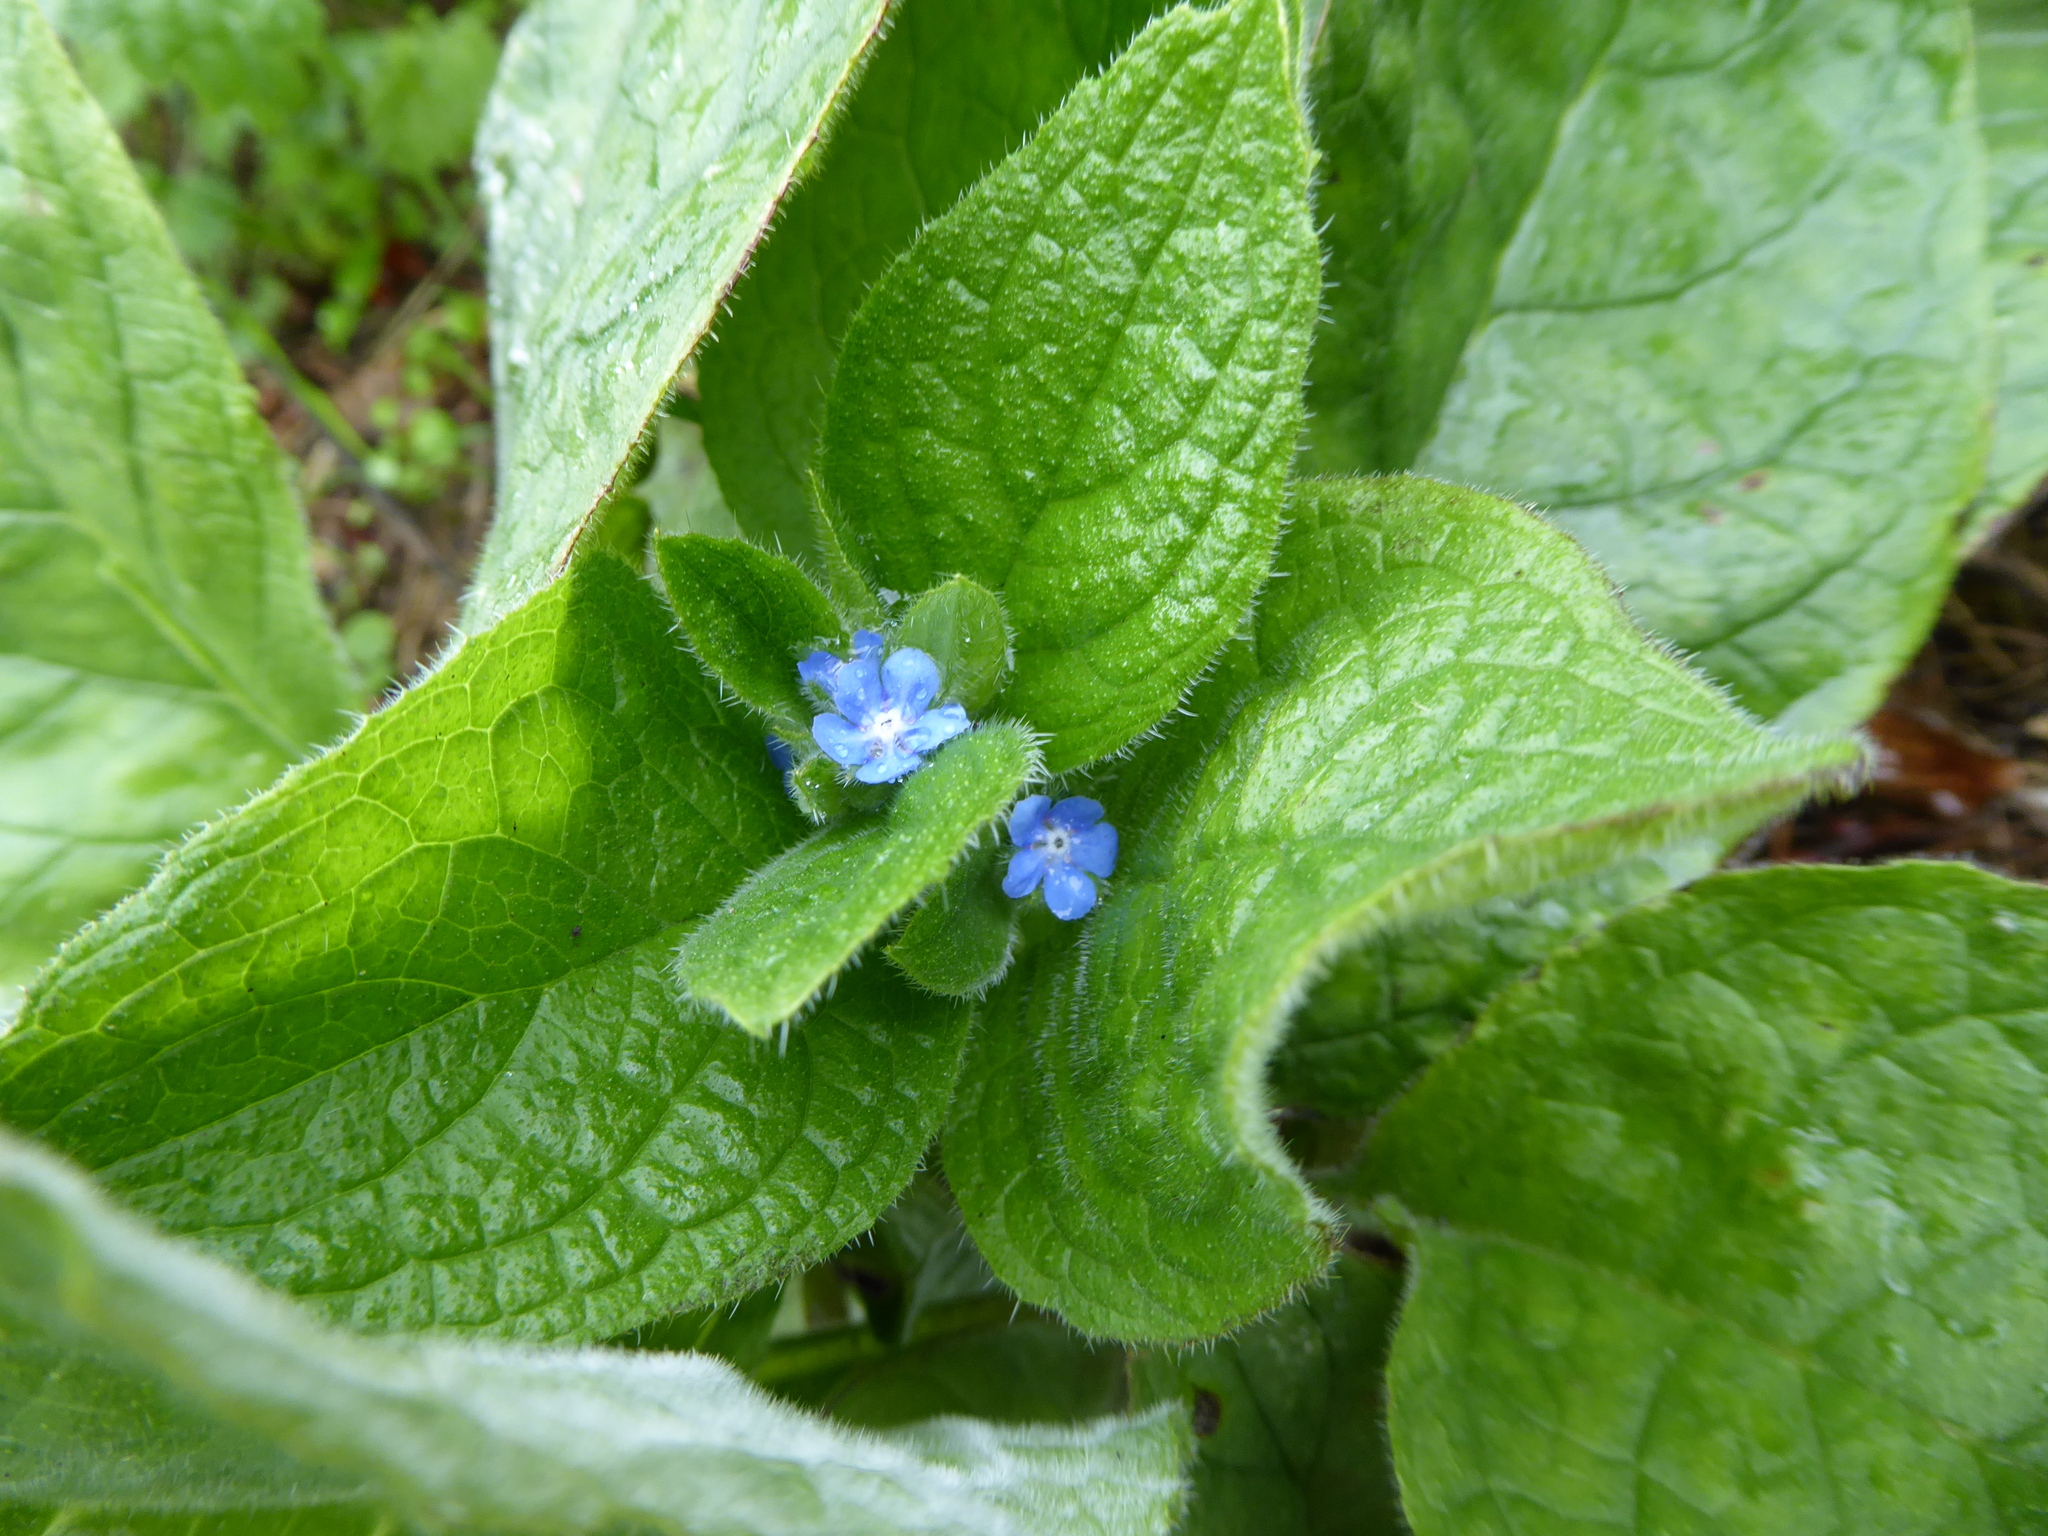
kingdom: Plantae
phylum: Tracheophyta
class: Magnoliopsida
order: Boraginales
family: Boraginaceae
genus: Pentaglottis
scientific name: Pentaglottis sempervirens
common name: Green alkanet
